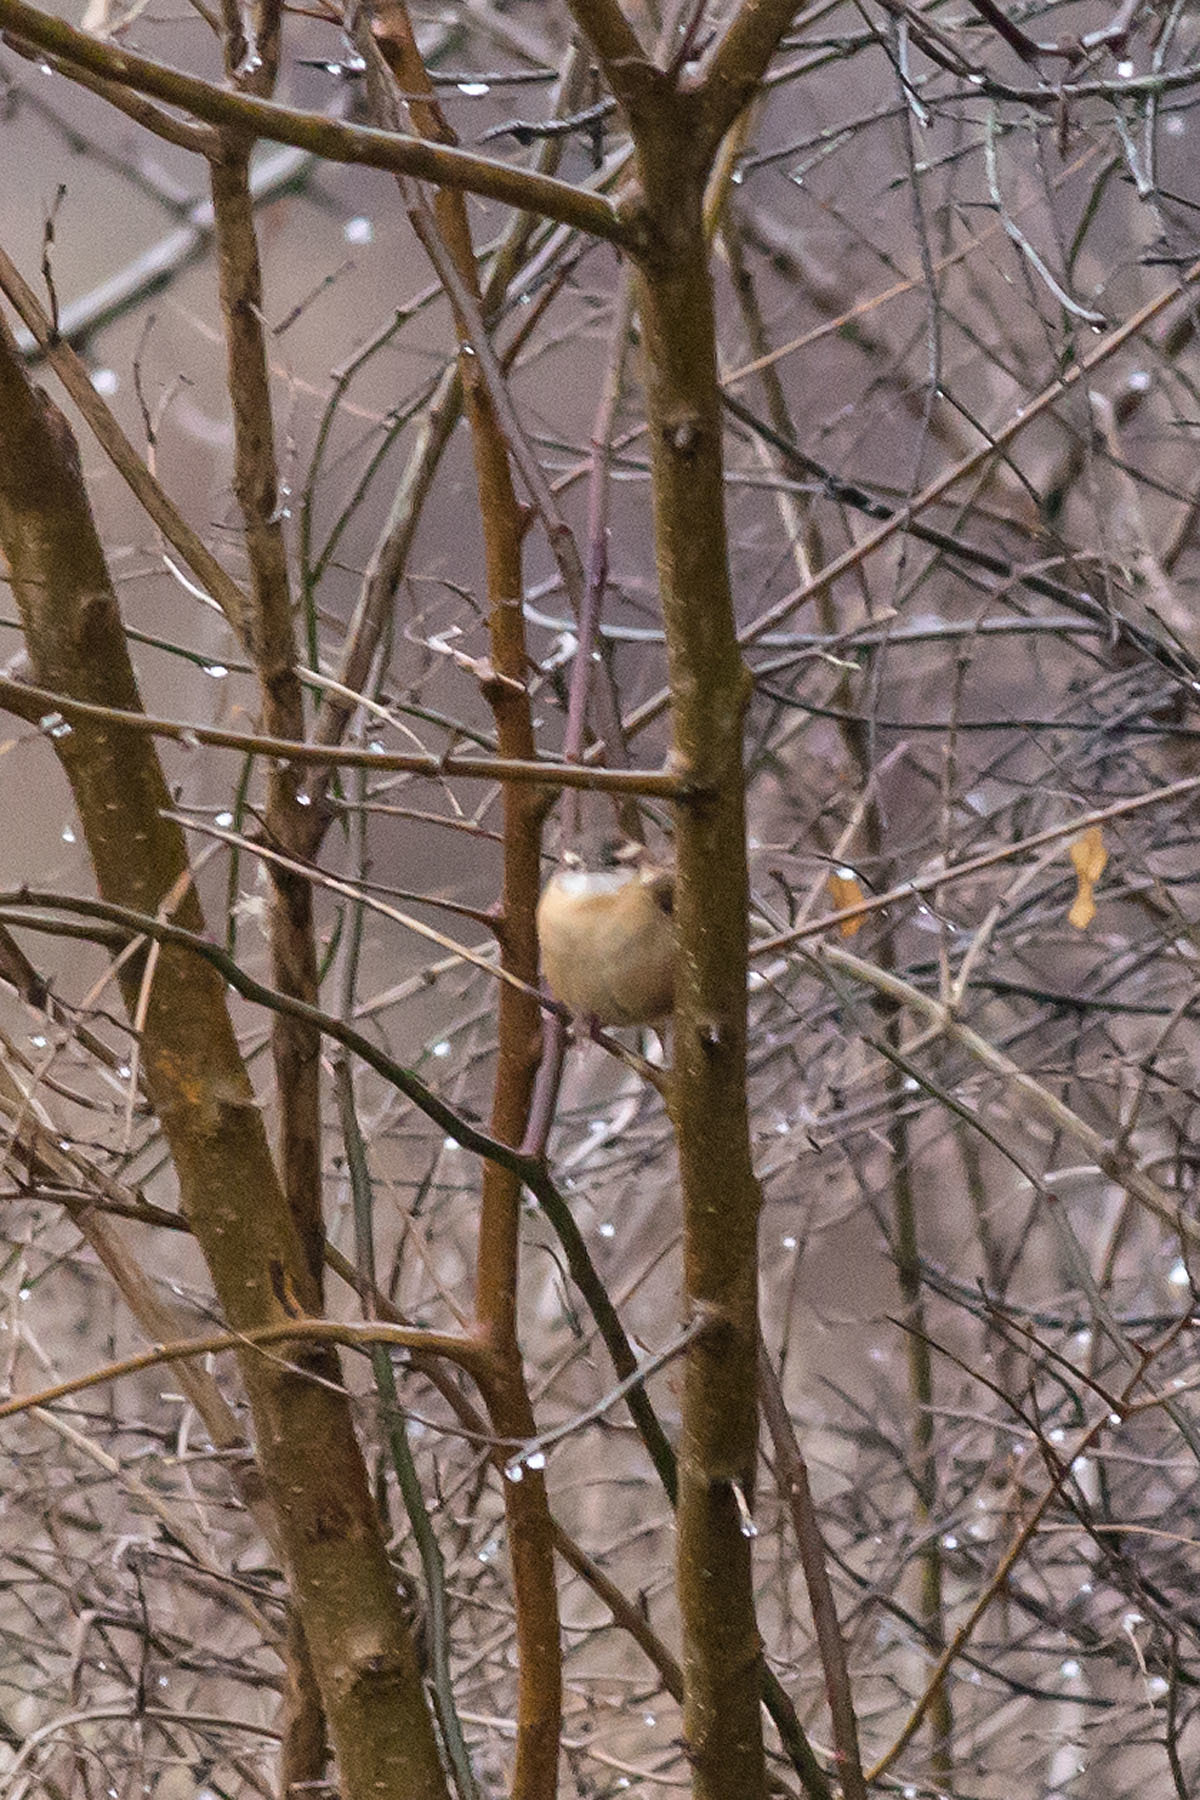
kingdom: Animalia
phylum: Chordata
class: Aves
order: Passeriformes
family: Troglodytidae
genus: Thryothorus
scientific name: Thryothorus ludovicianus
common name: Carolina wren
